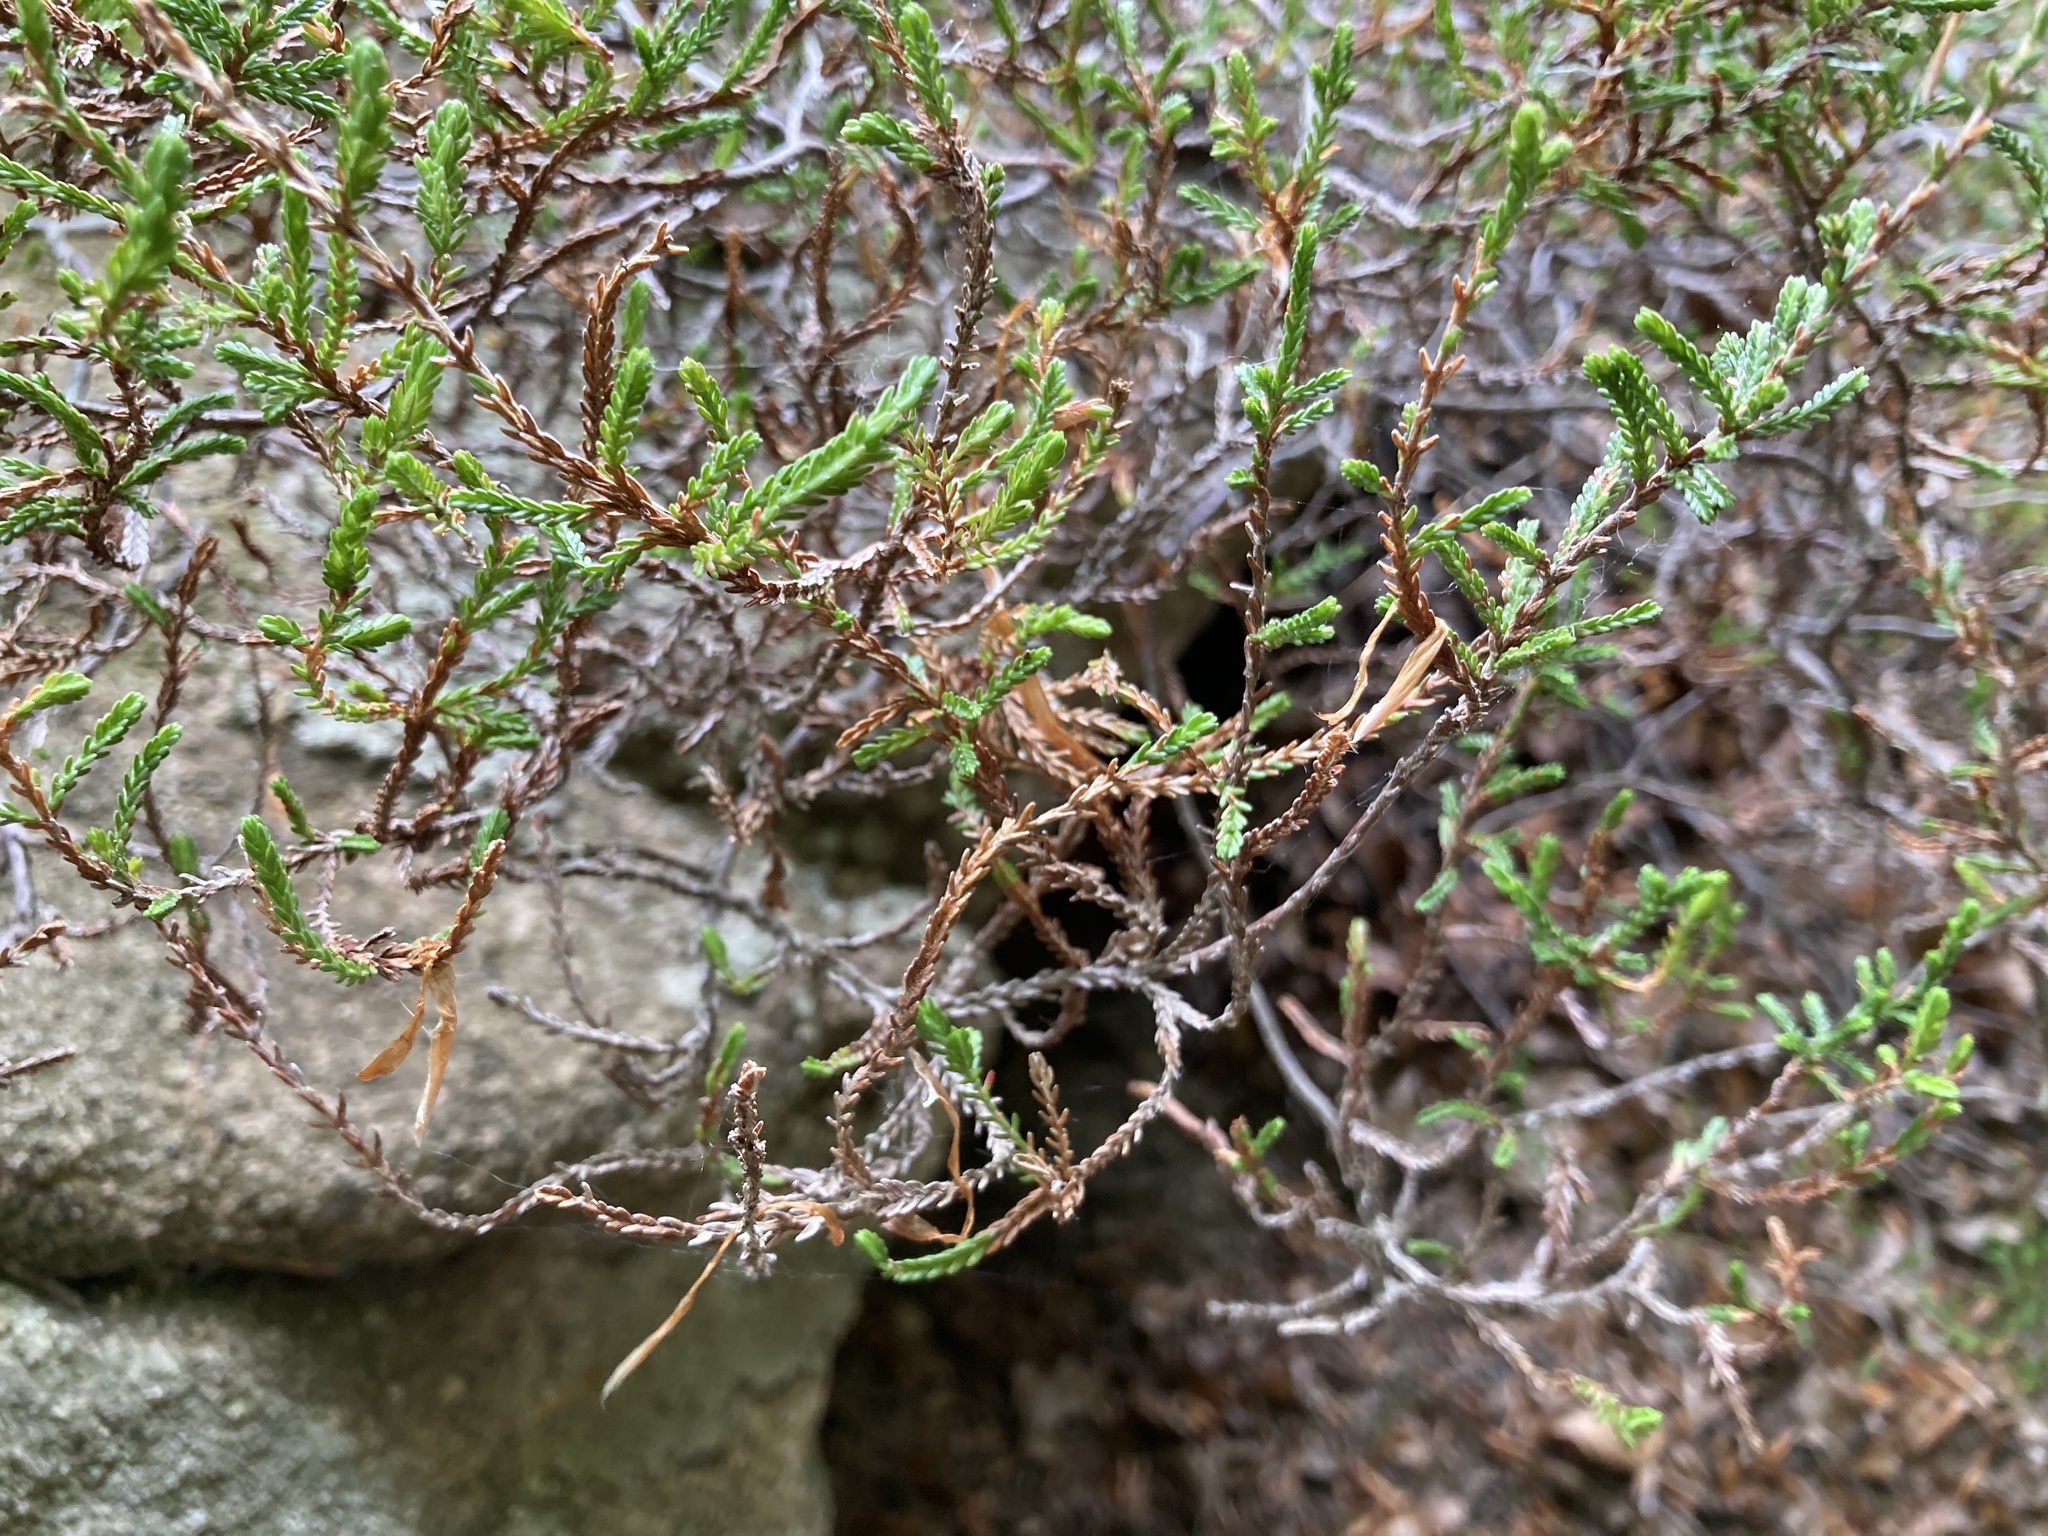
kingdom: Plantae
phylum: Tracheophyta
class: Magnoliopsida
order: Ericales
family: Ericaceae
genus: Calluna
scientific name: Calluna vulgaris
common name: Heather
